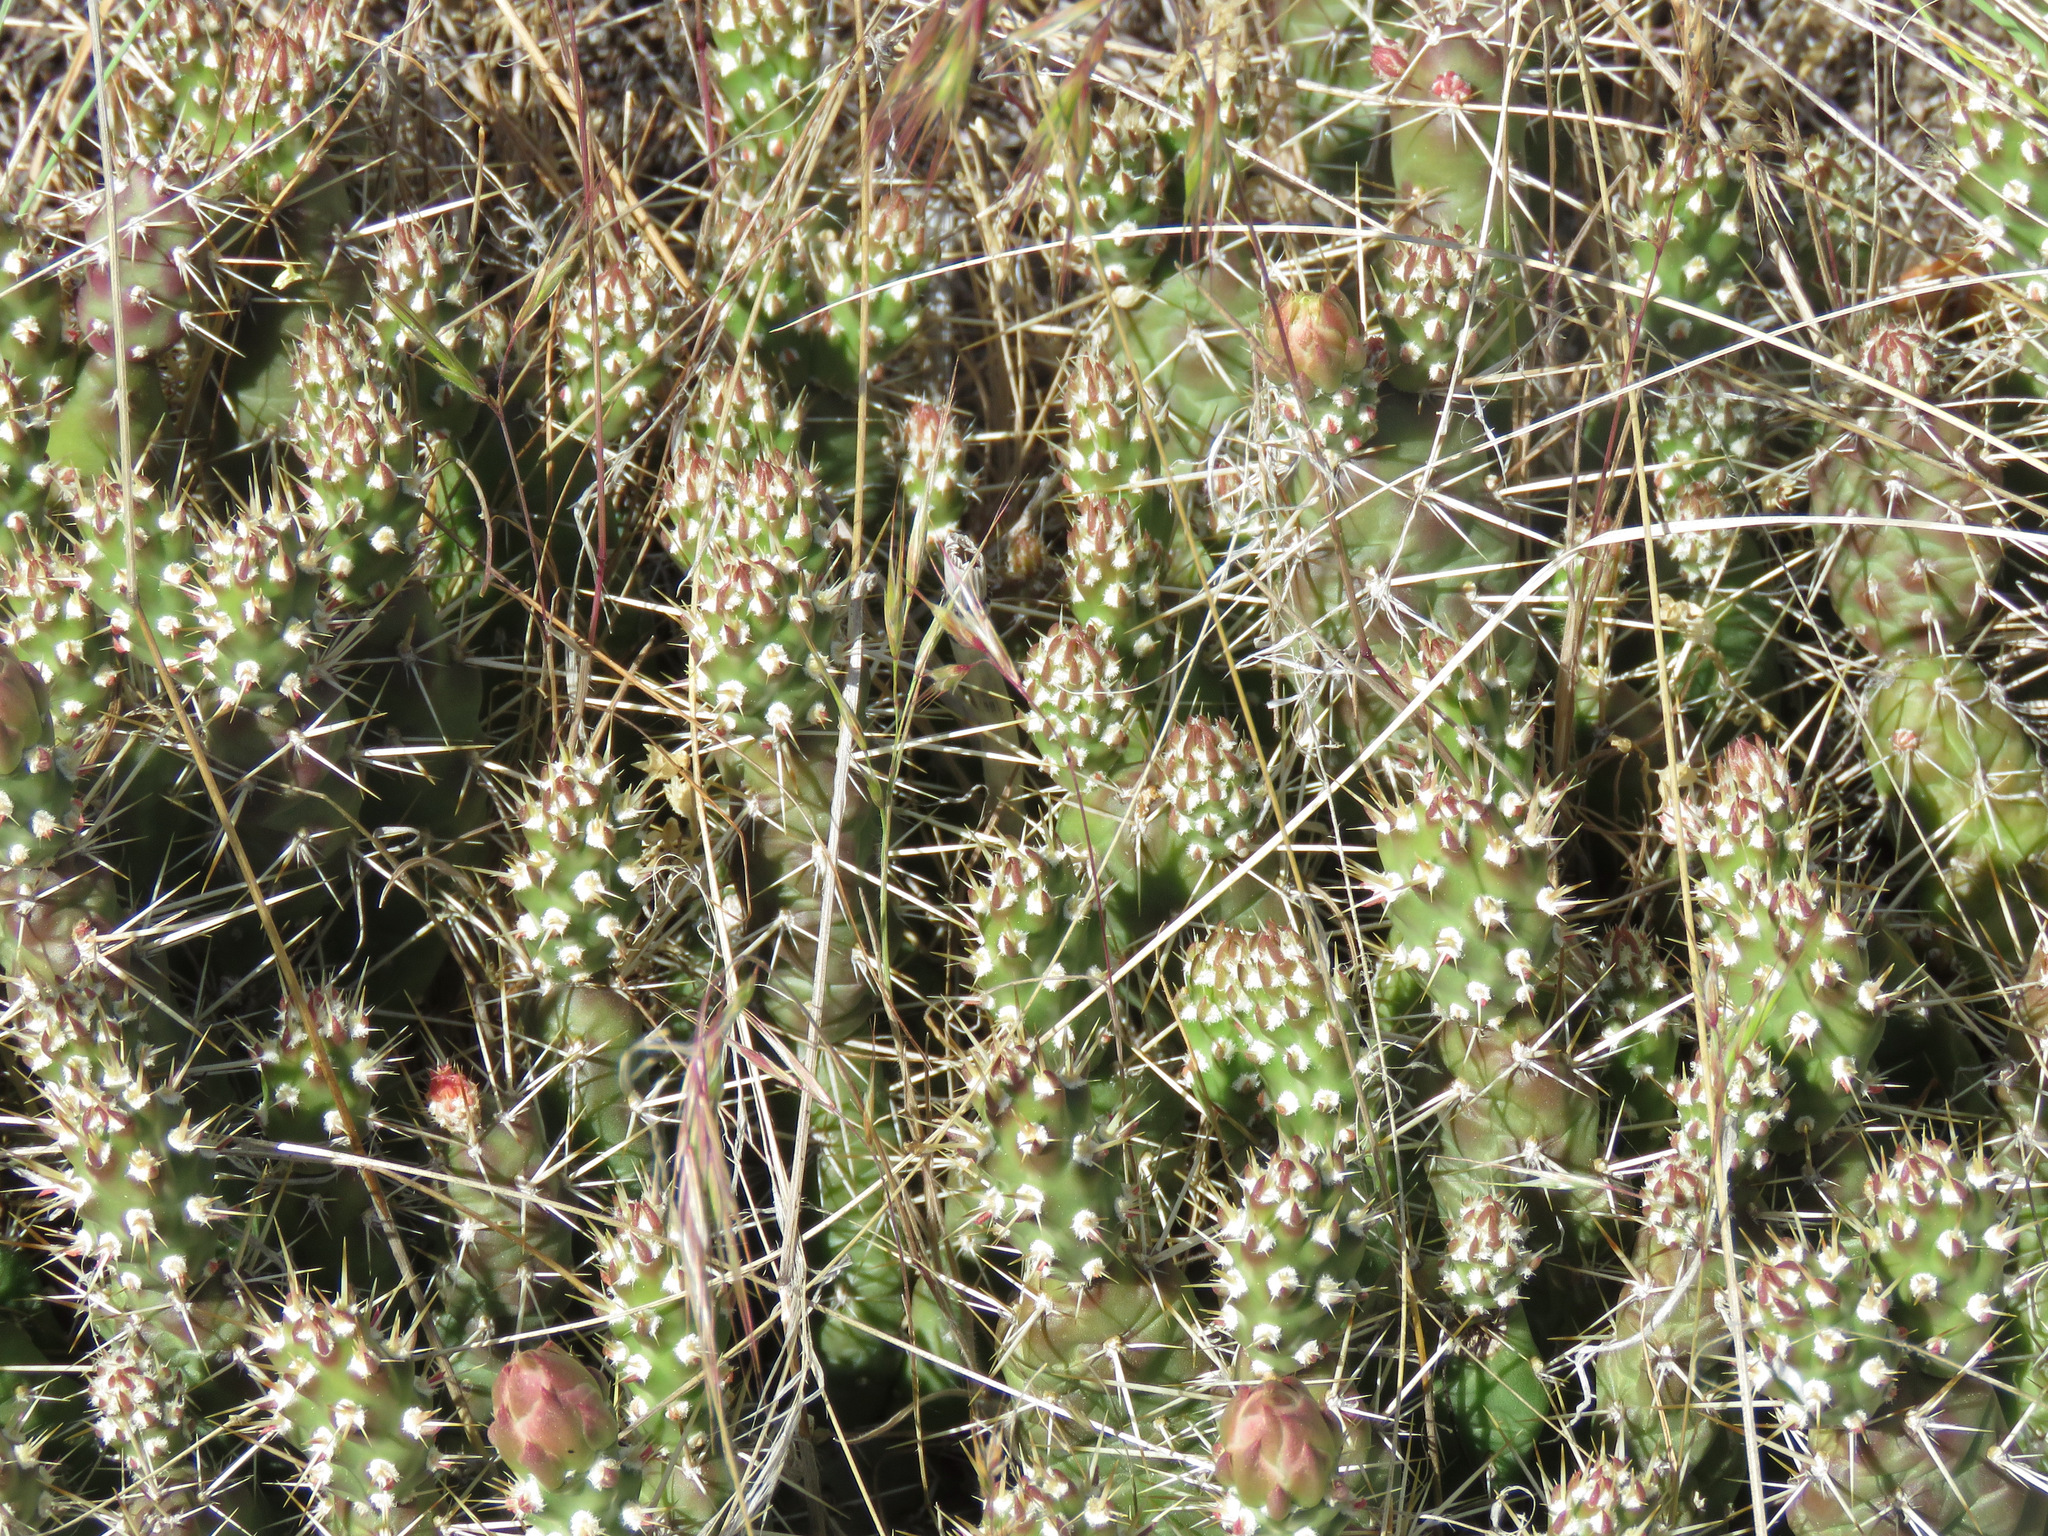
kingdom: Plantae
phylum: Tracheophyta
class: Magnoliopsida
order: Caryophyllales
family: Cactaceae
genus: Opuntia
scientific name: Opuntia fragilis
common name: Brittle cactus
